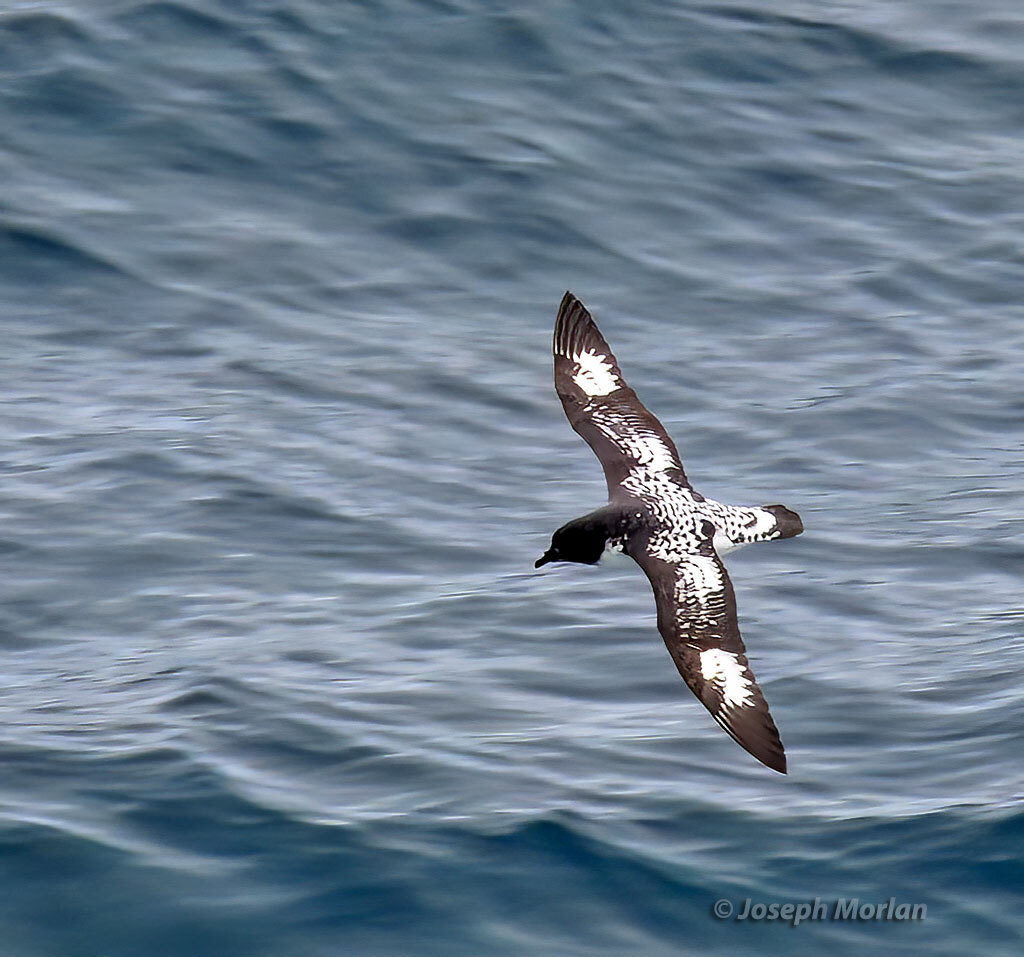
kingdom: Animalia
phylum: Chordata
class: Aves
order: Procellariiformes
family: Procellariidae
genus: Daption
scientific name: Daption capense
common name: Cape petrel
